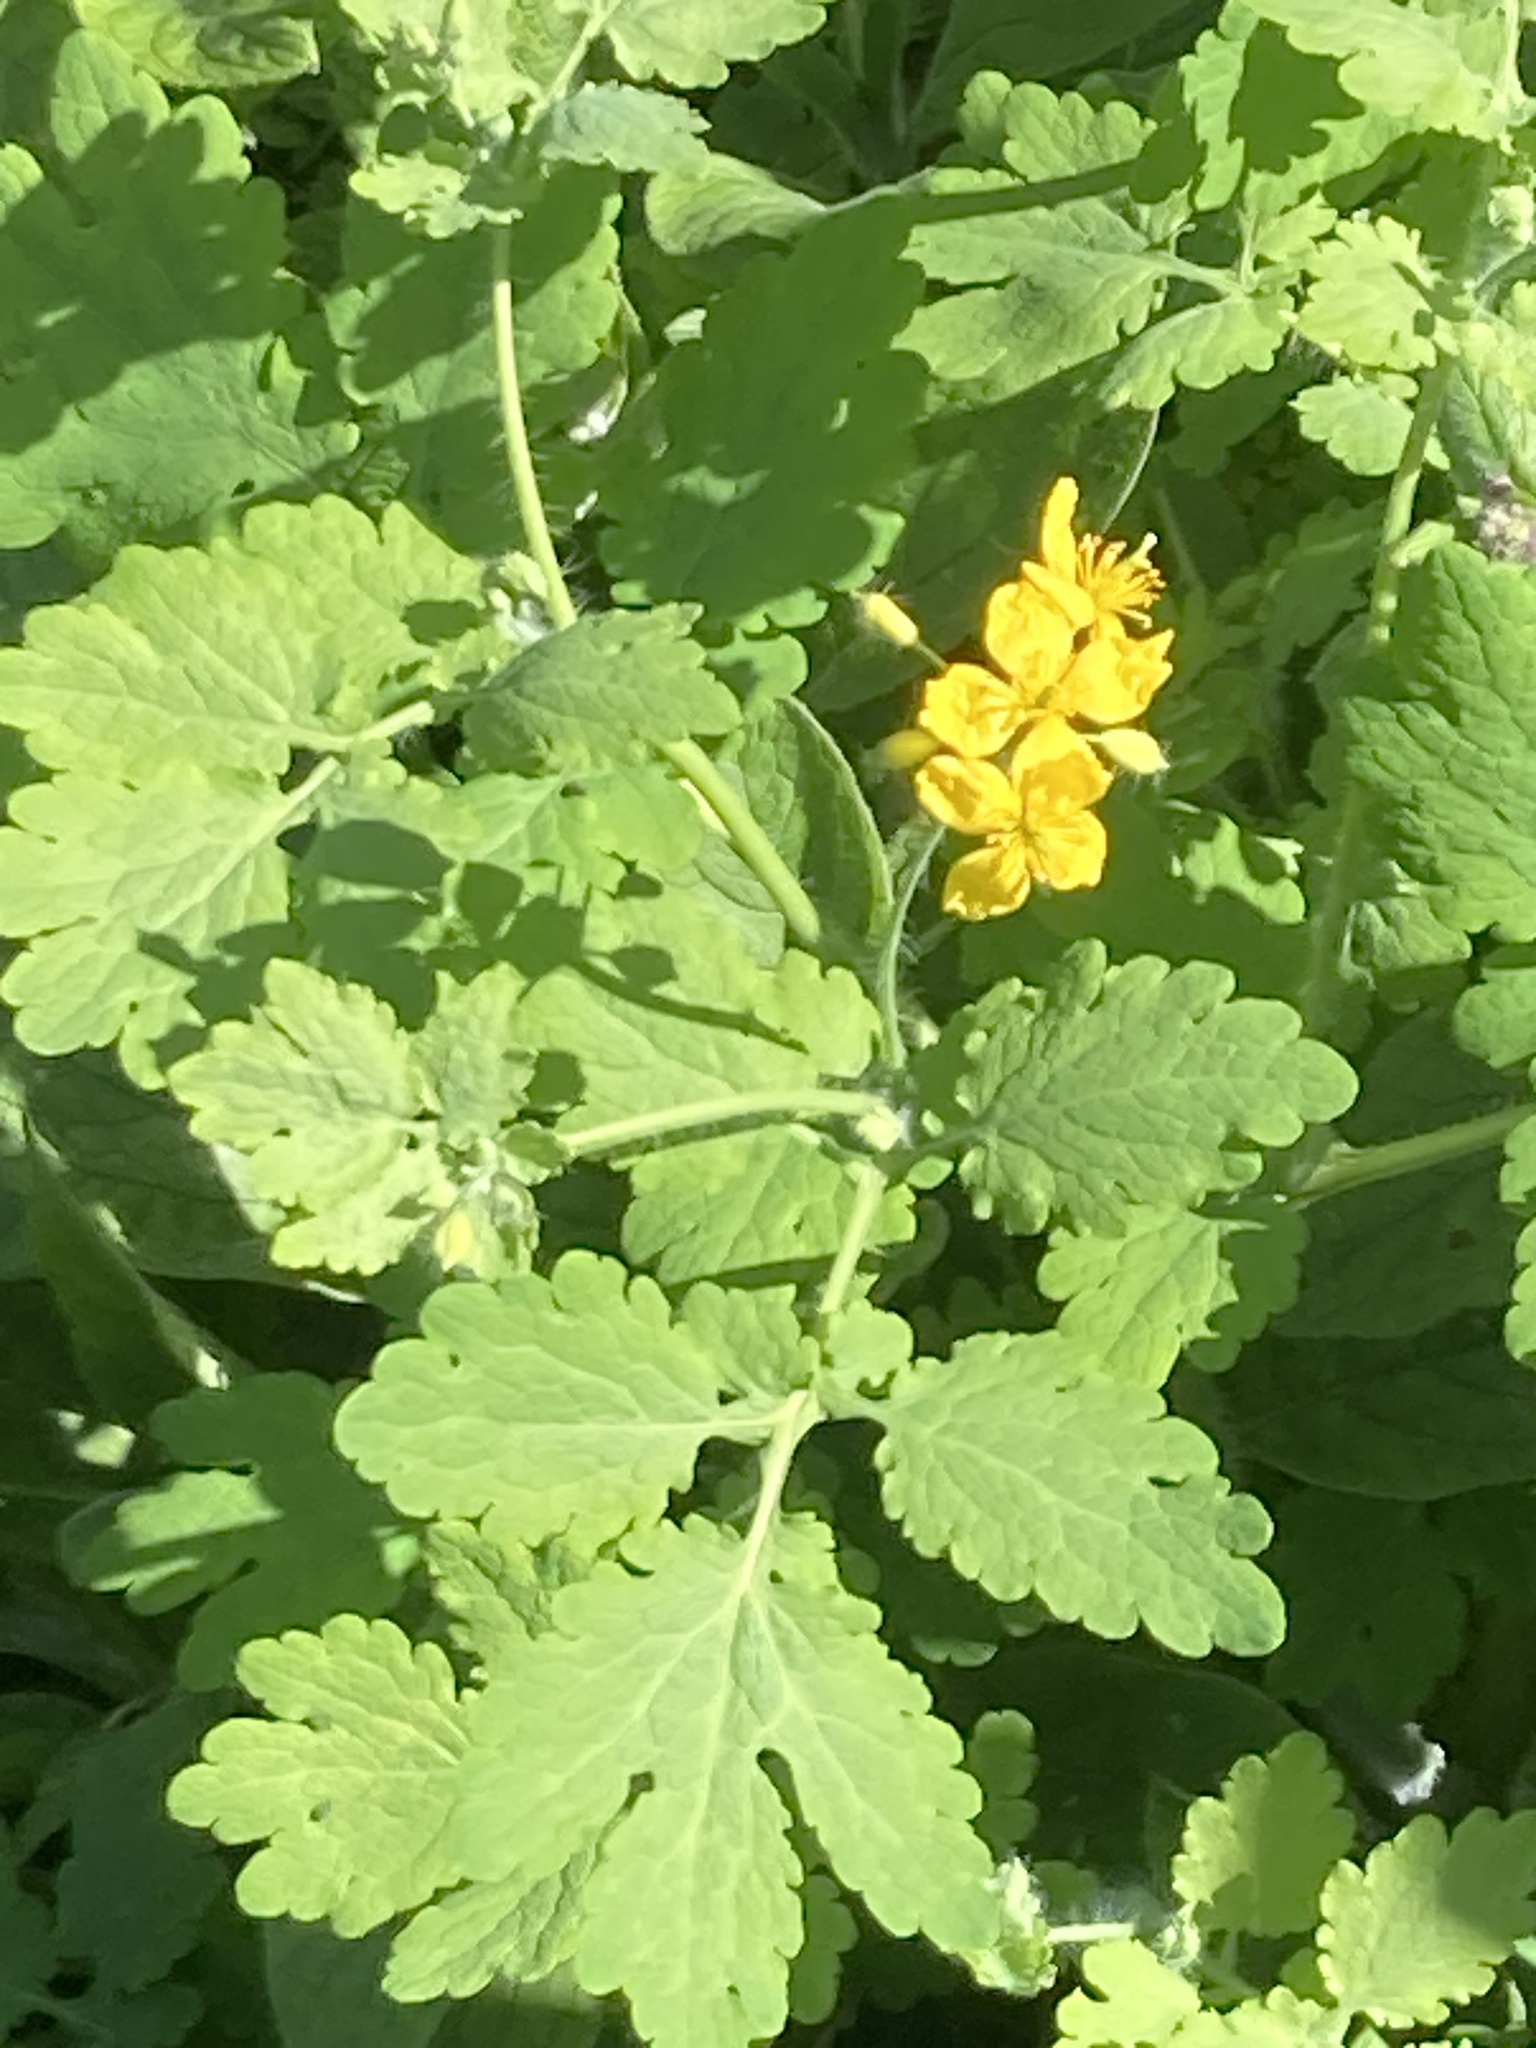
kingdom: Plantae
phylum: Tracheophyta
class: Magnoliopsida
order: Ranunculales
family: Papaveraceae
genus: Chelidonium
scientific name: Chelidonium majus
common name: Greater celandine
